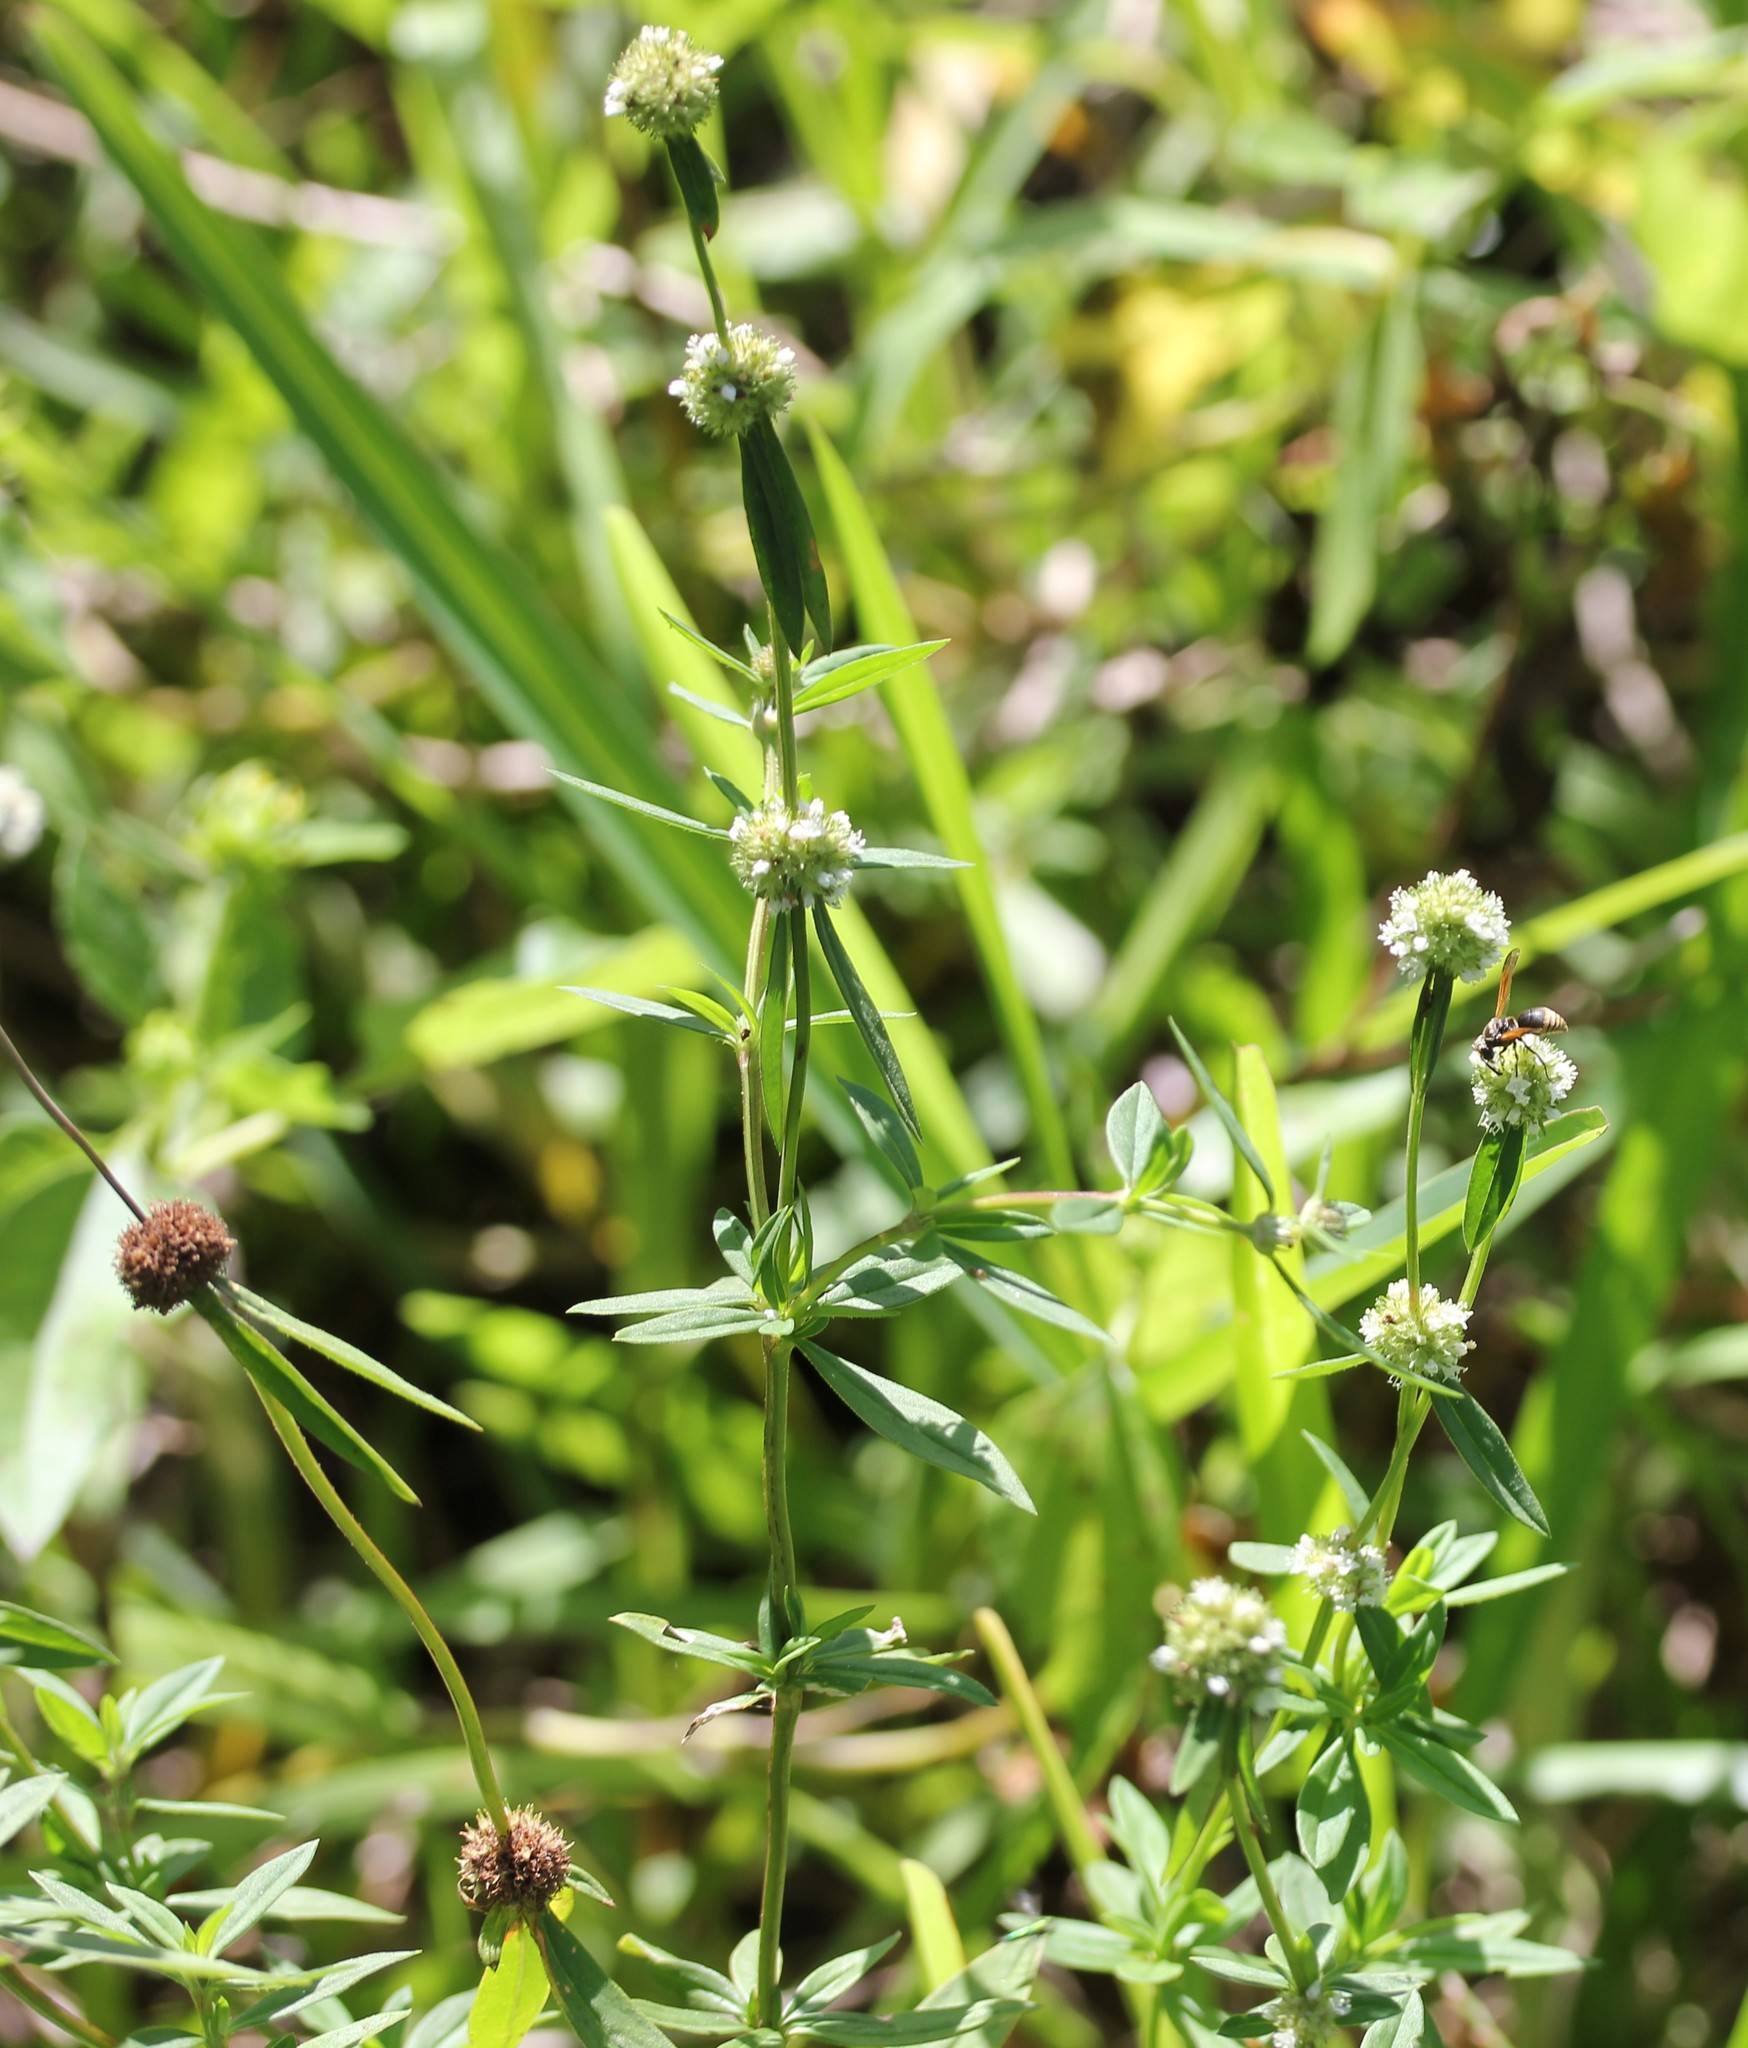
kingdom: Plantae
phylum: Tracheophyta
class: Magnoliopsida
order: Gentianales
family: Rubiaceae
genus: Spermacoce
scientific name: Spermacoce verticillata
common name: Shrubby false buttonweed
